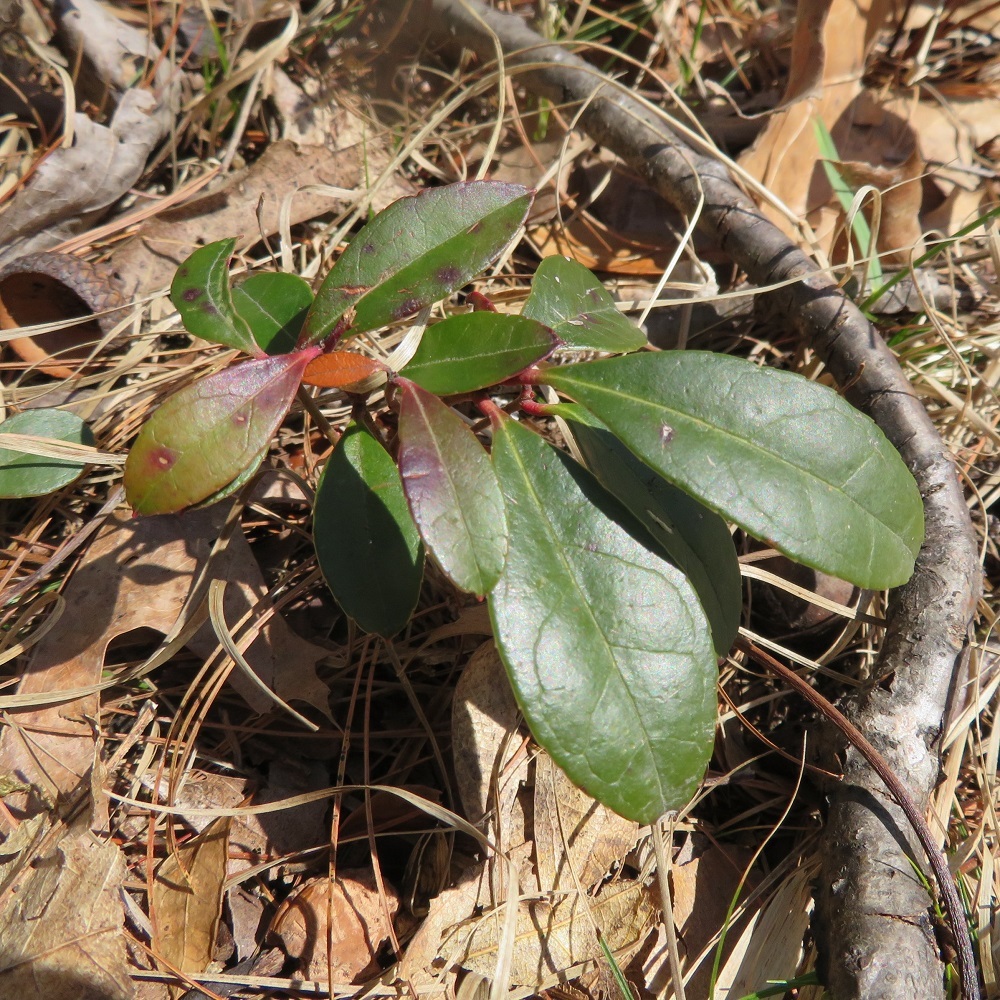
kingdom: Plantae
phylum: Tracheophyta
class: Magnoliopsida
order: Ericales
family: Ericaceae
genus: Gaultheria
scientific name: Gaultheria procumbens
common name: Checkerberry
